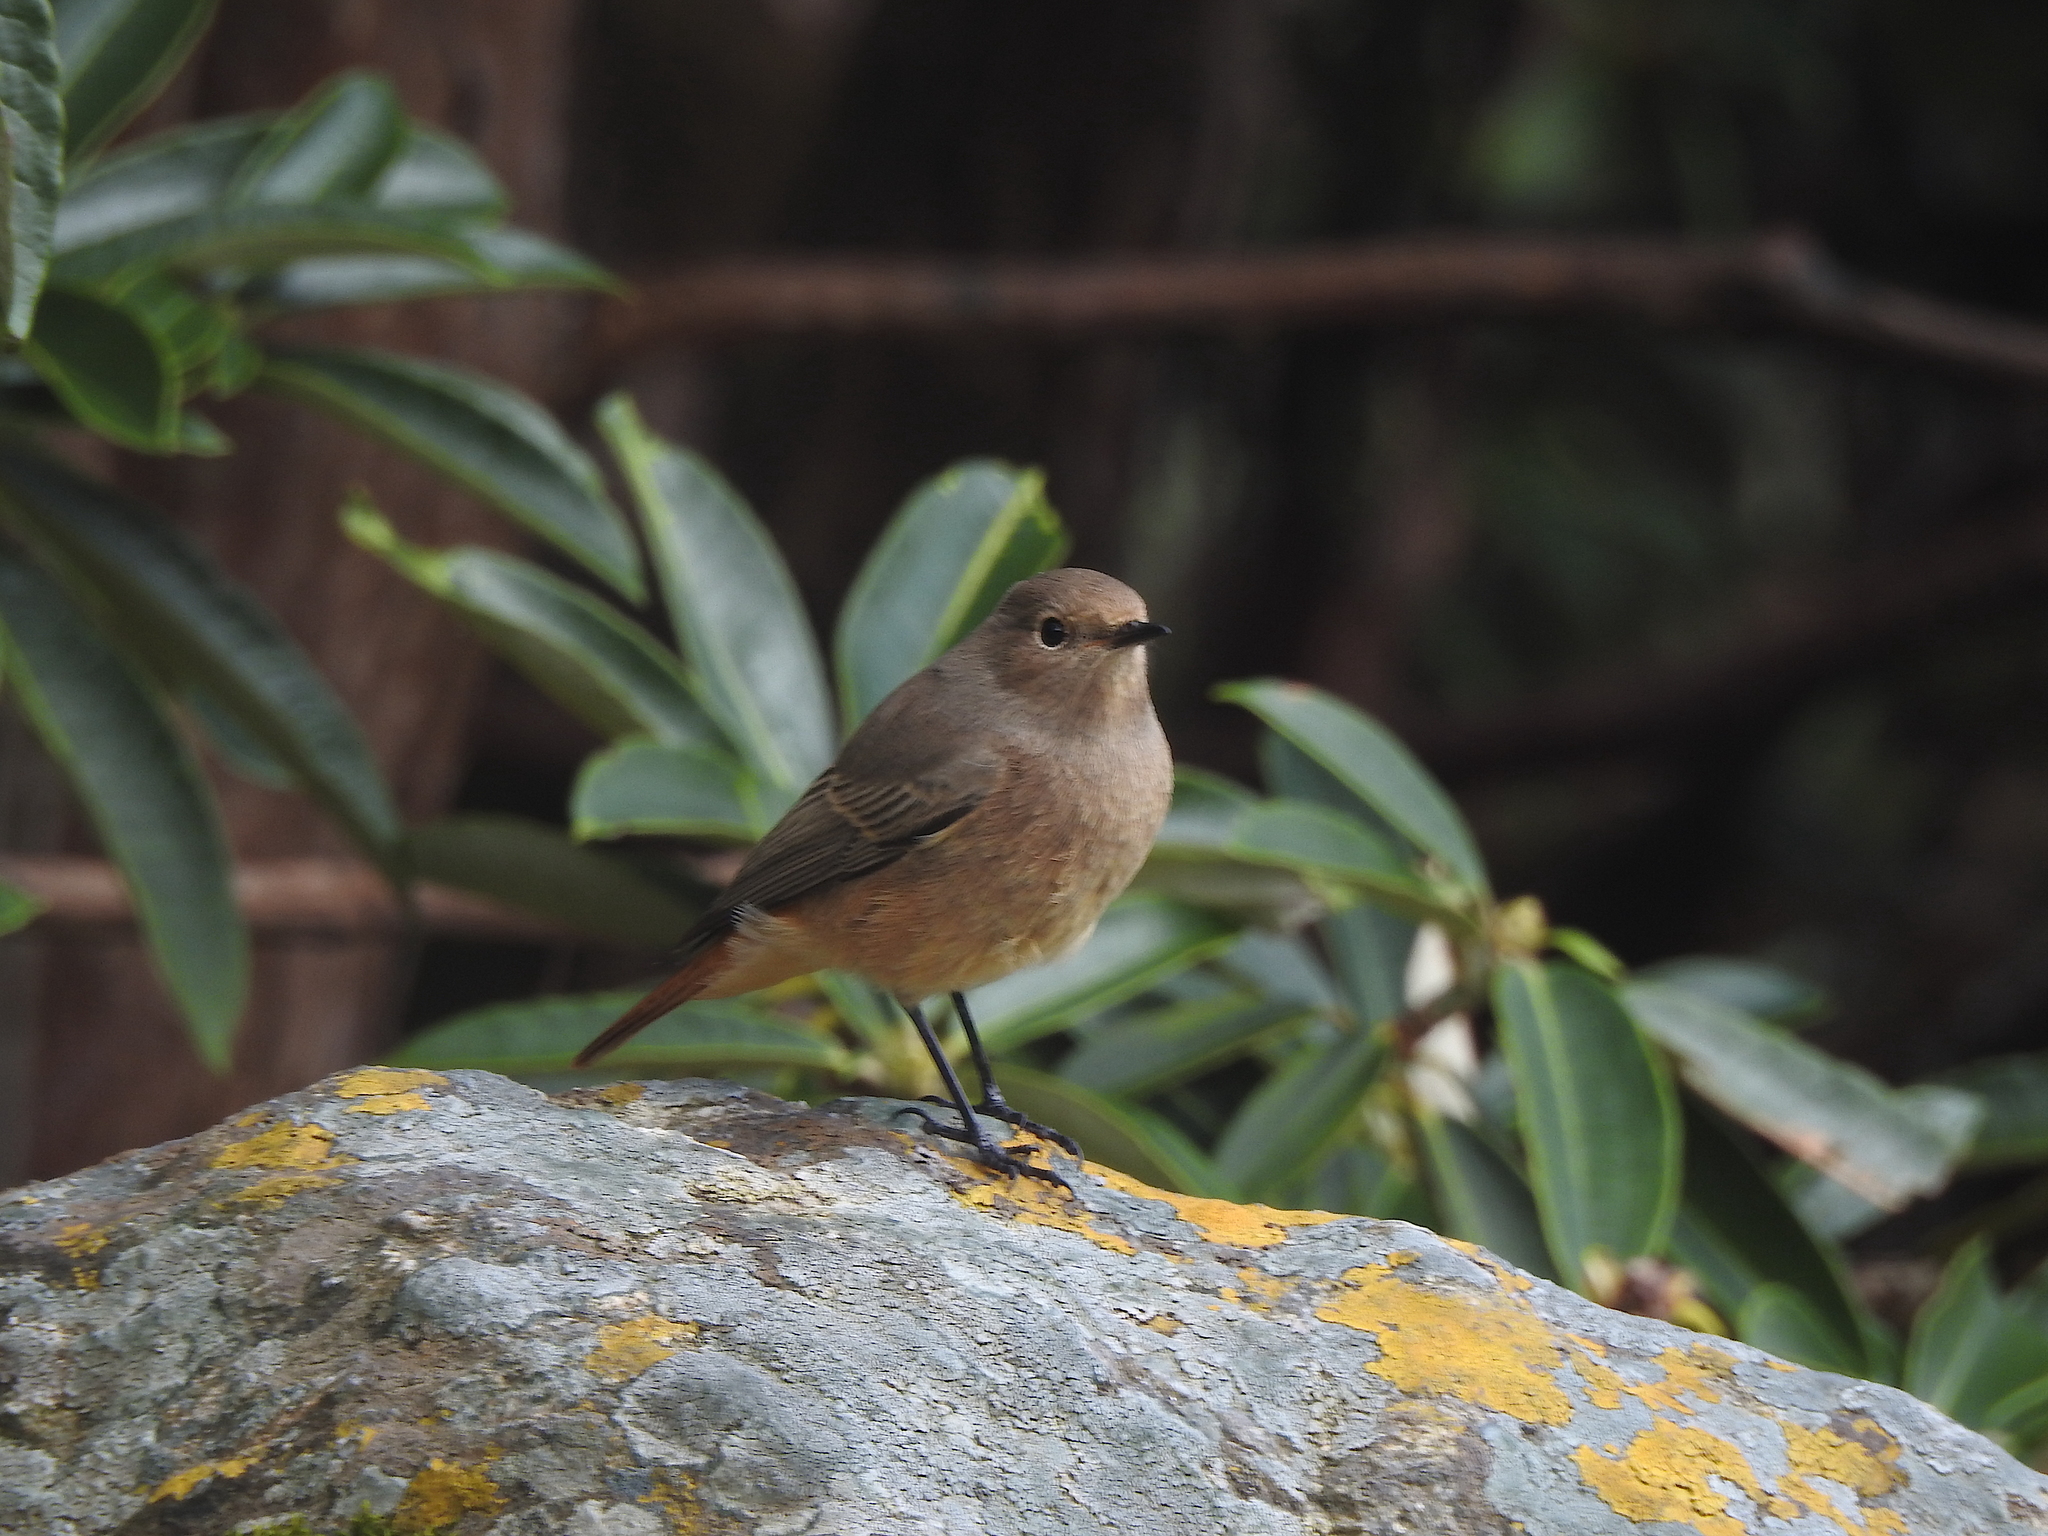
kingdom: Animalia
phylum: Chordata
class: Aves
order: Passeriformes
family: Muscicapidae
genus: Phoenicurus
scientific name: Phoenicurus ochruros
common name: Black redstart
